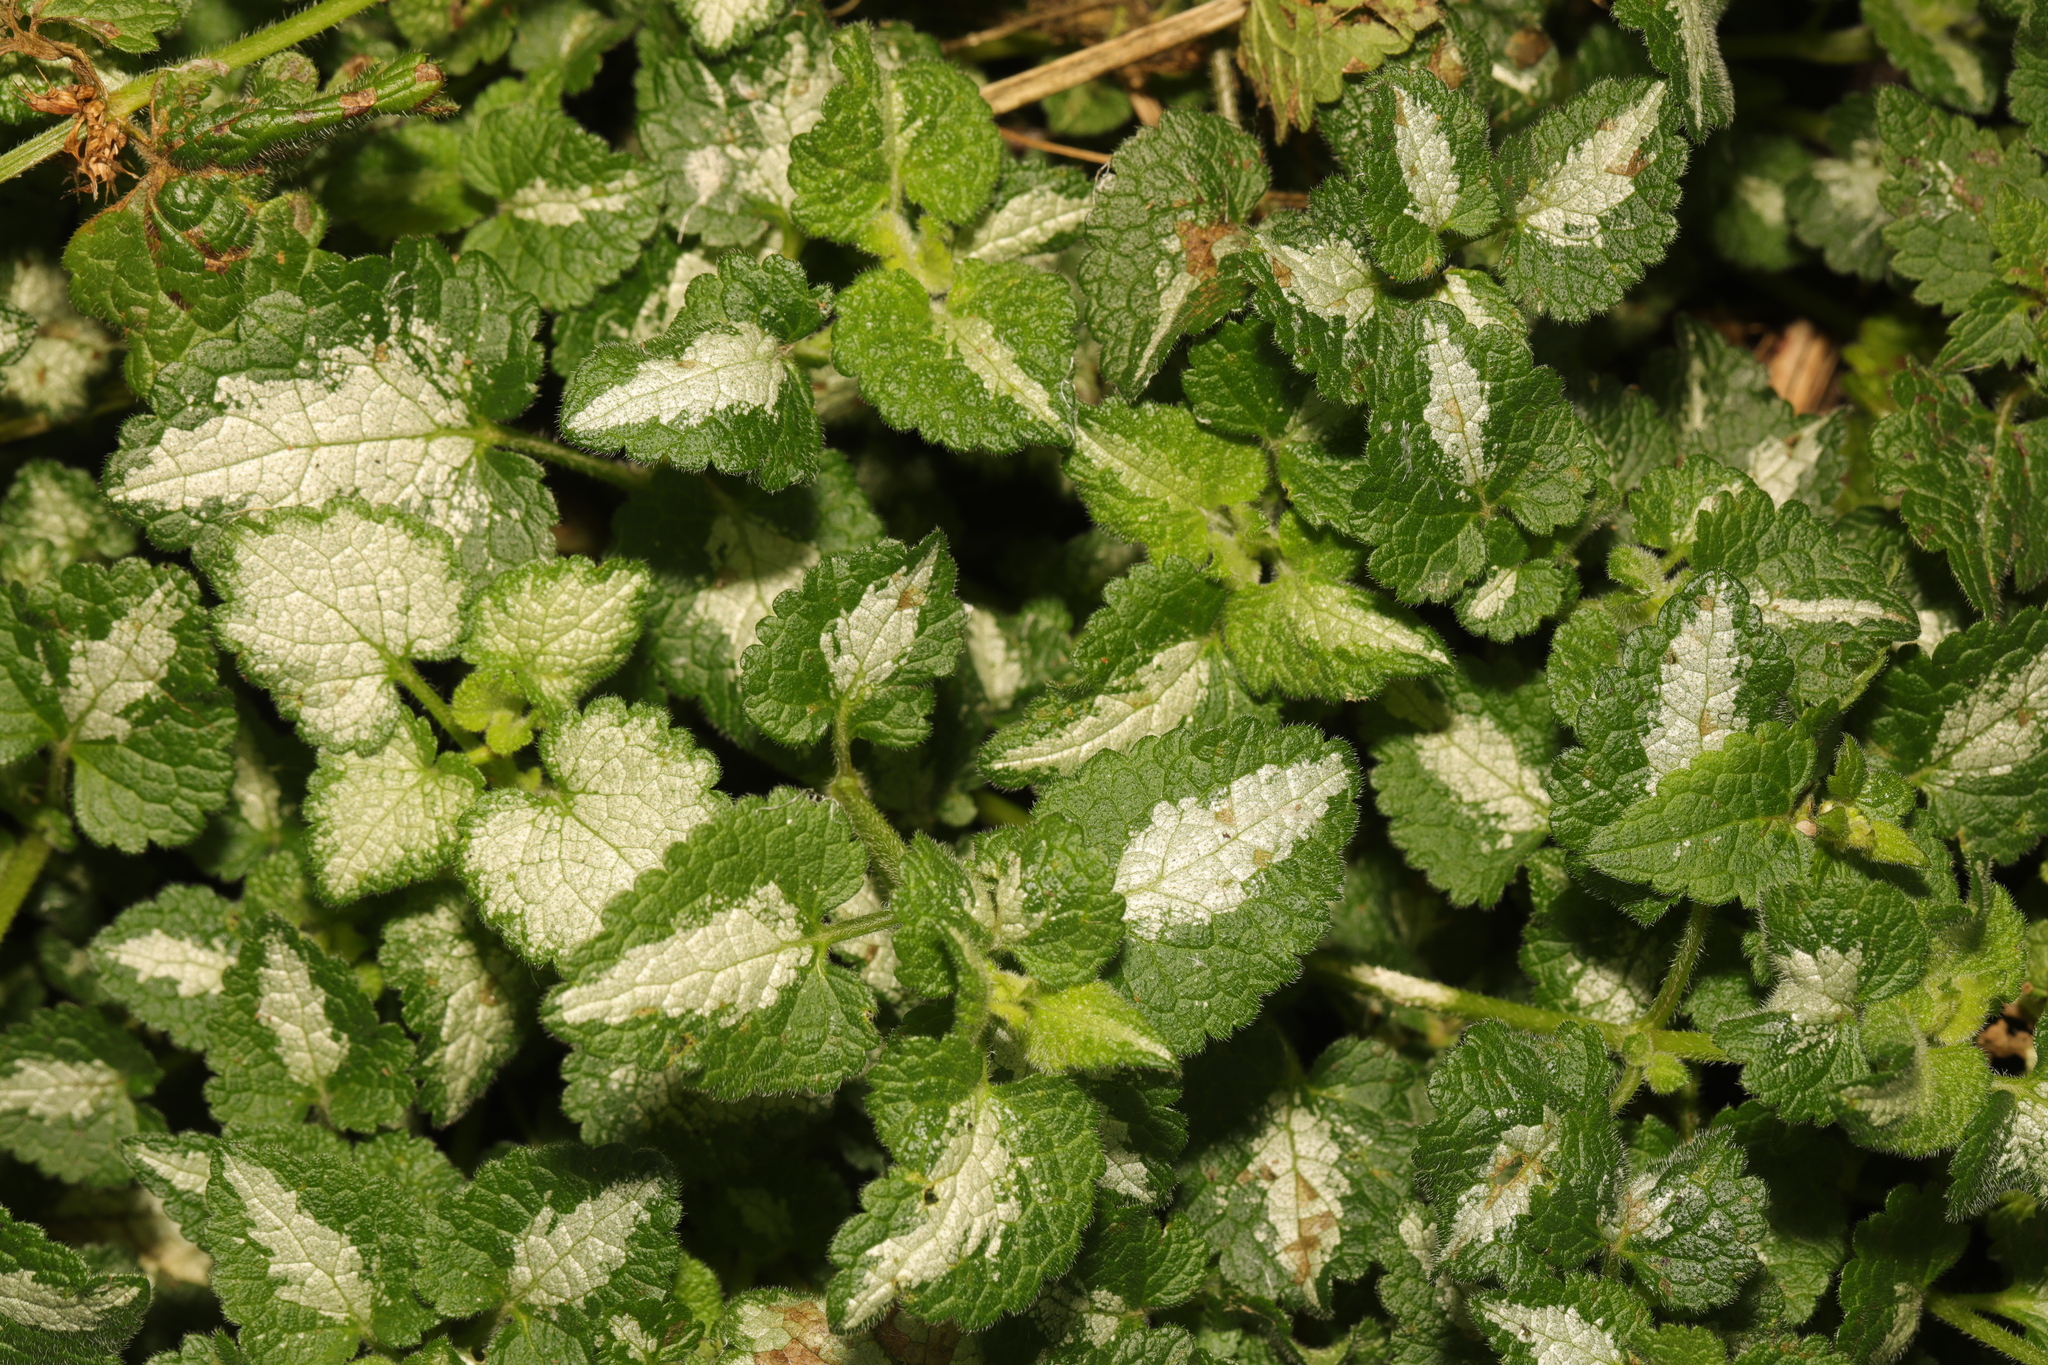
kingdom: Plantae
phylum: Tracheophyta
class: Magnoliopsida
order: Lamiales
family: Lamiaceae
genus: Lamium
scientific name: Lamium maculatum
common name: Spotted dead-nettle
